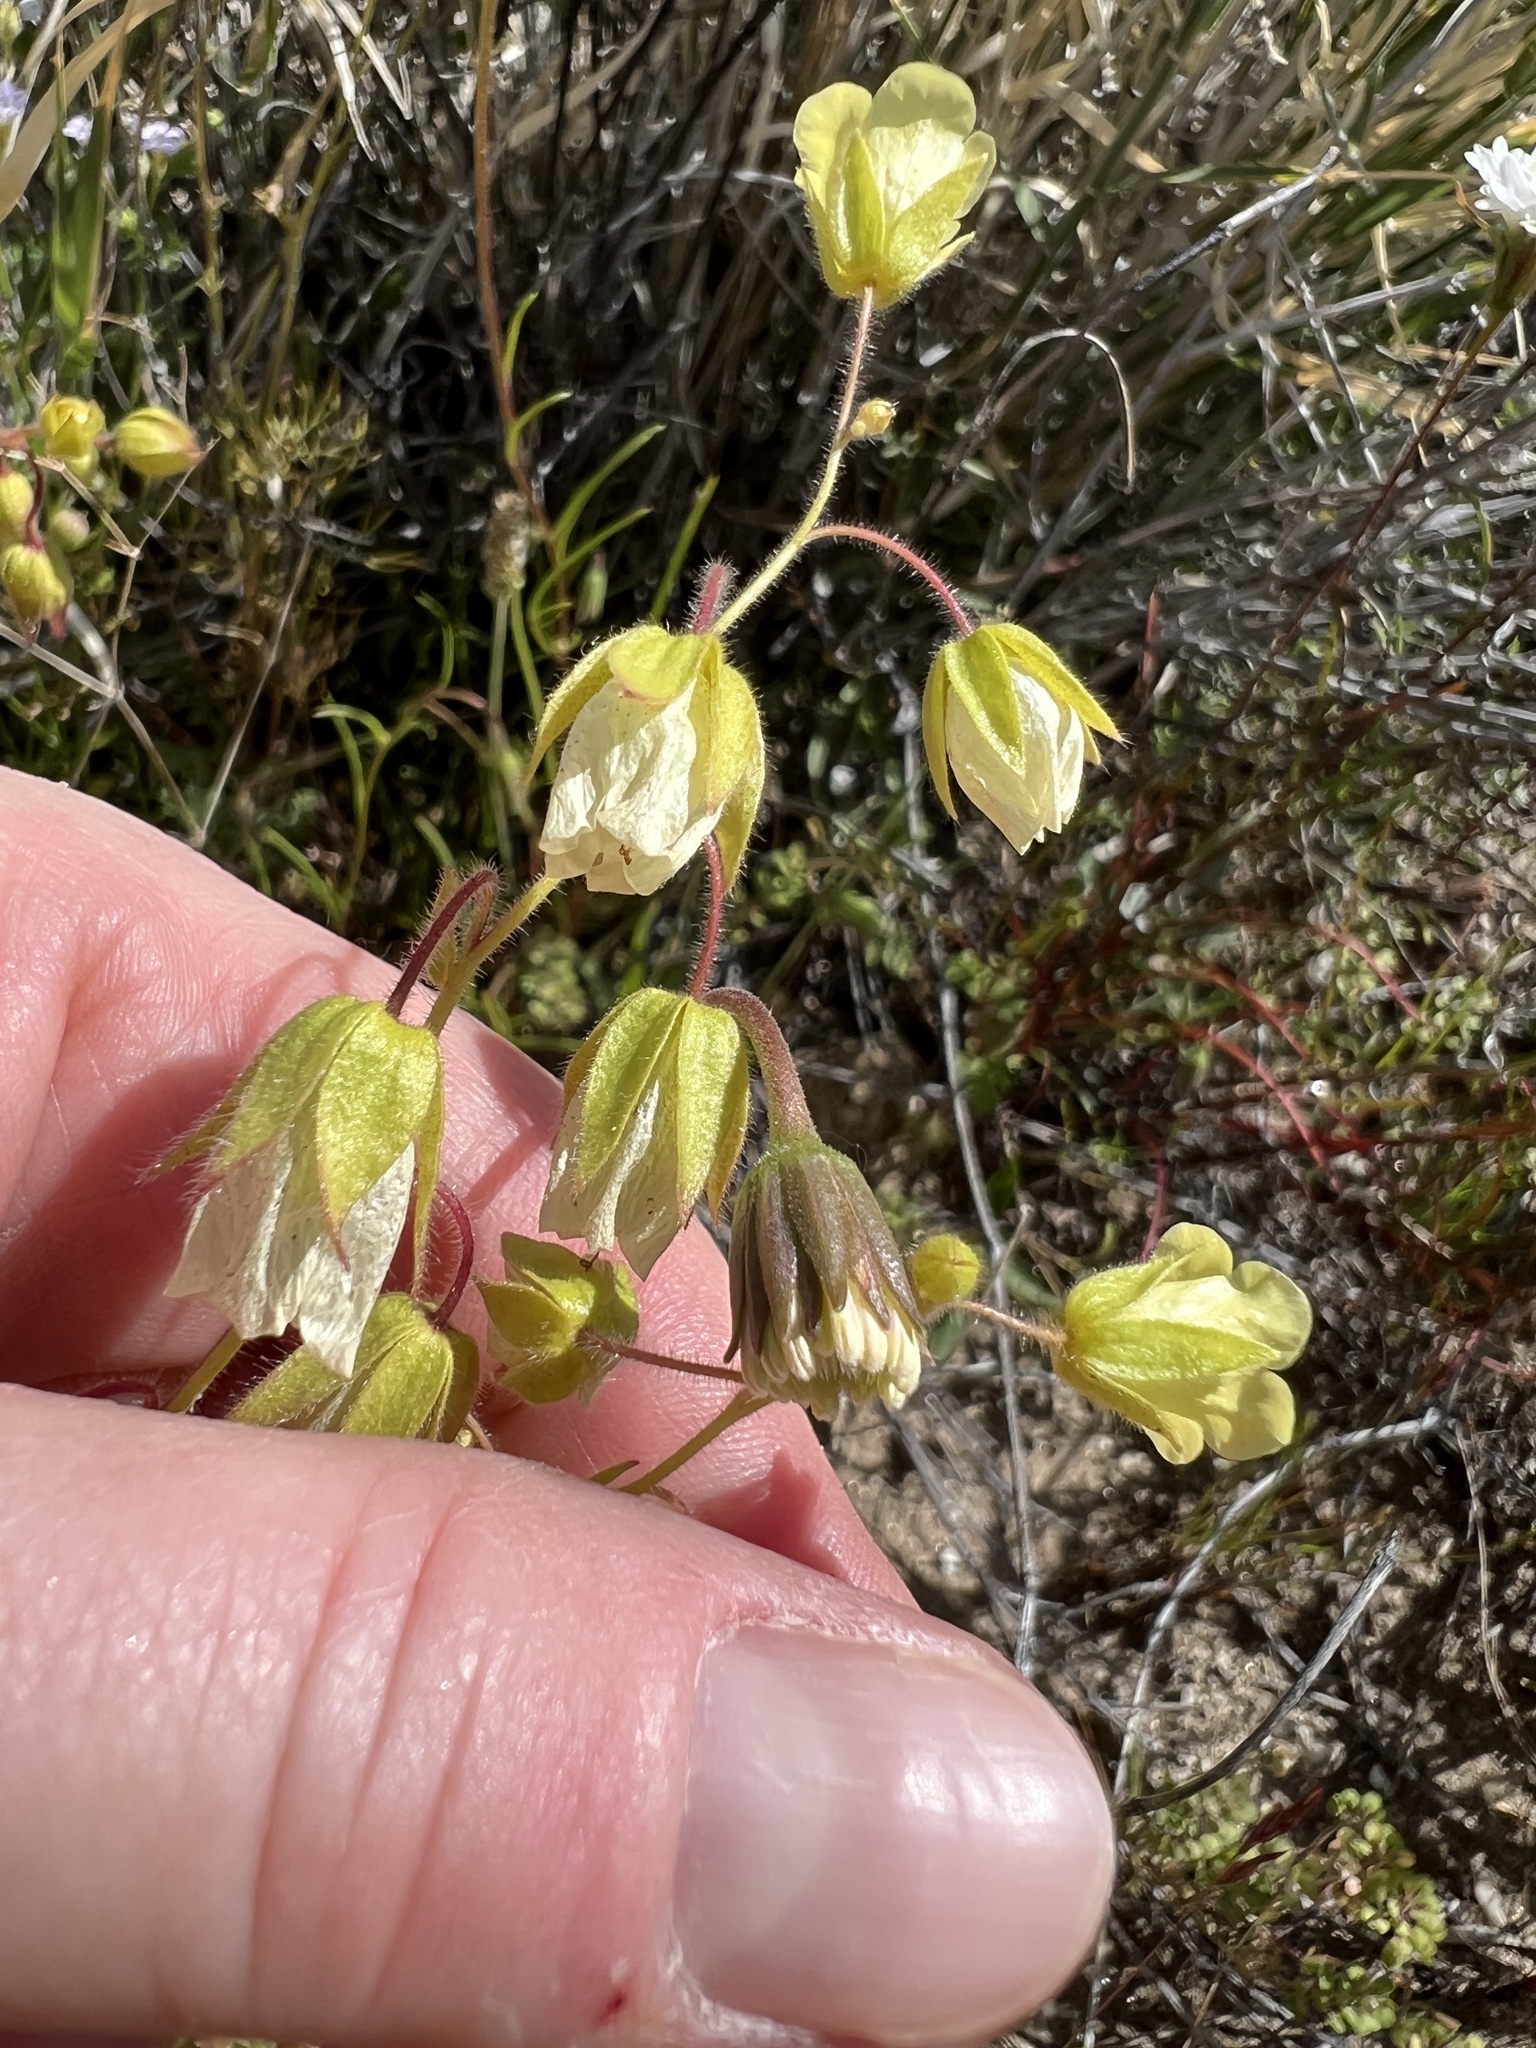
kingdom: Plantae
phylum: Tracheophyta
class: Magnoliopsida
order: Boraginales
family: Hydrophyllaceae
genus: Emmenanthe
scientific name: Emmenanthe penduliflora
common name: Whispering-bells
